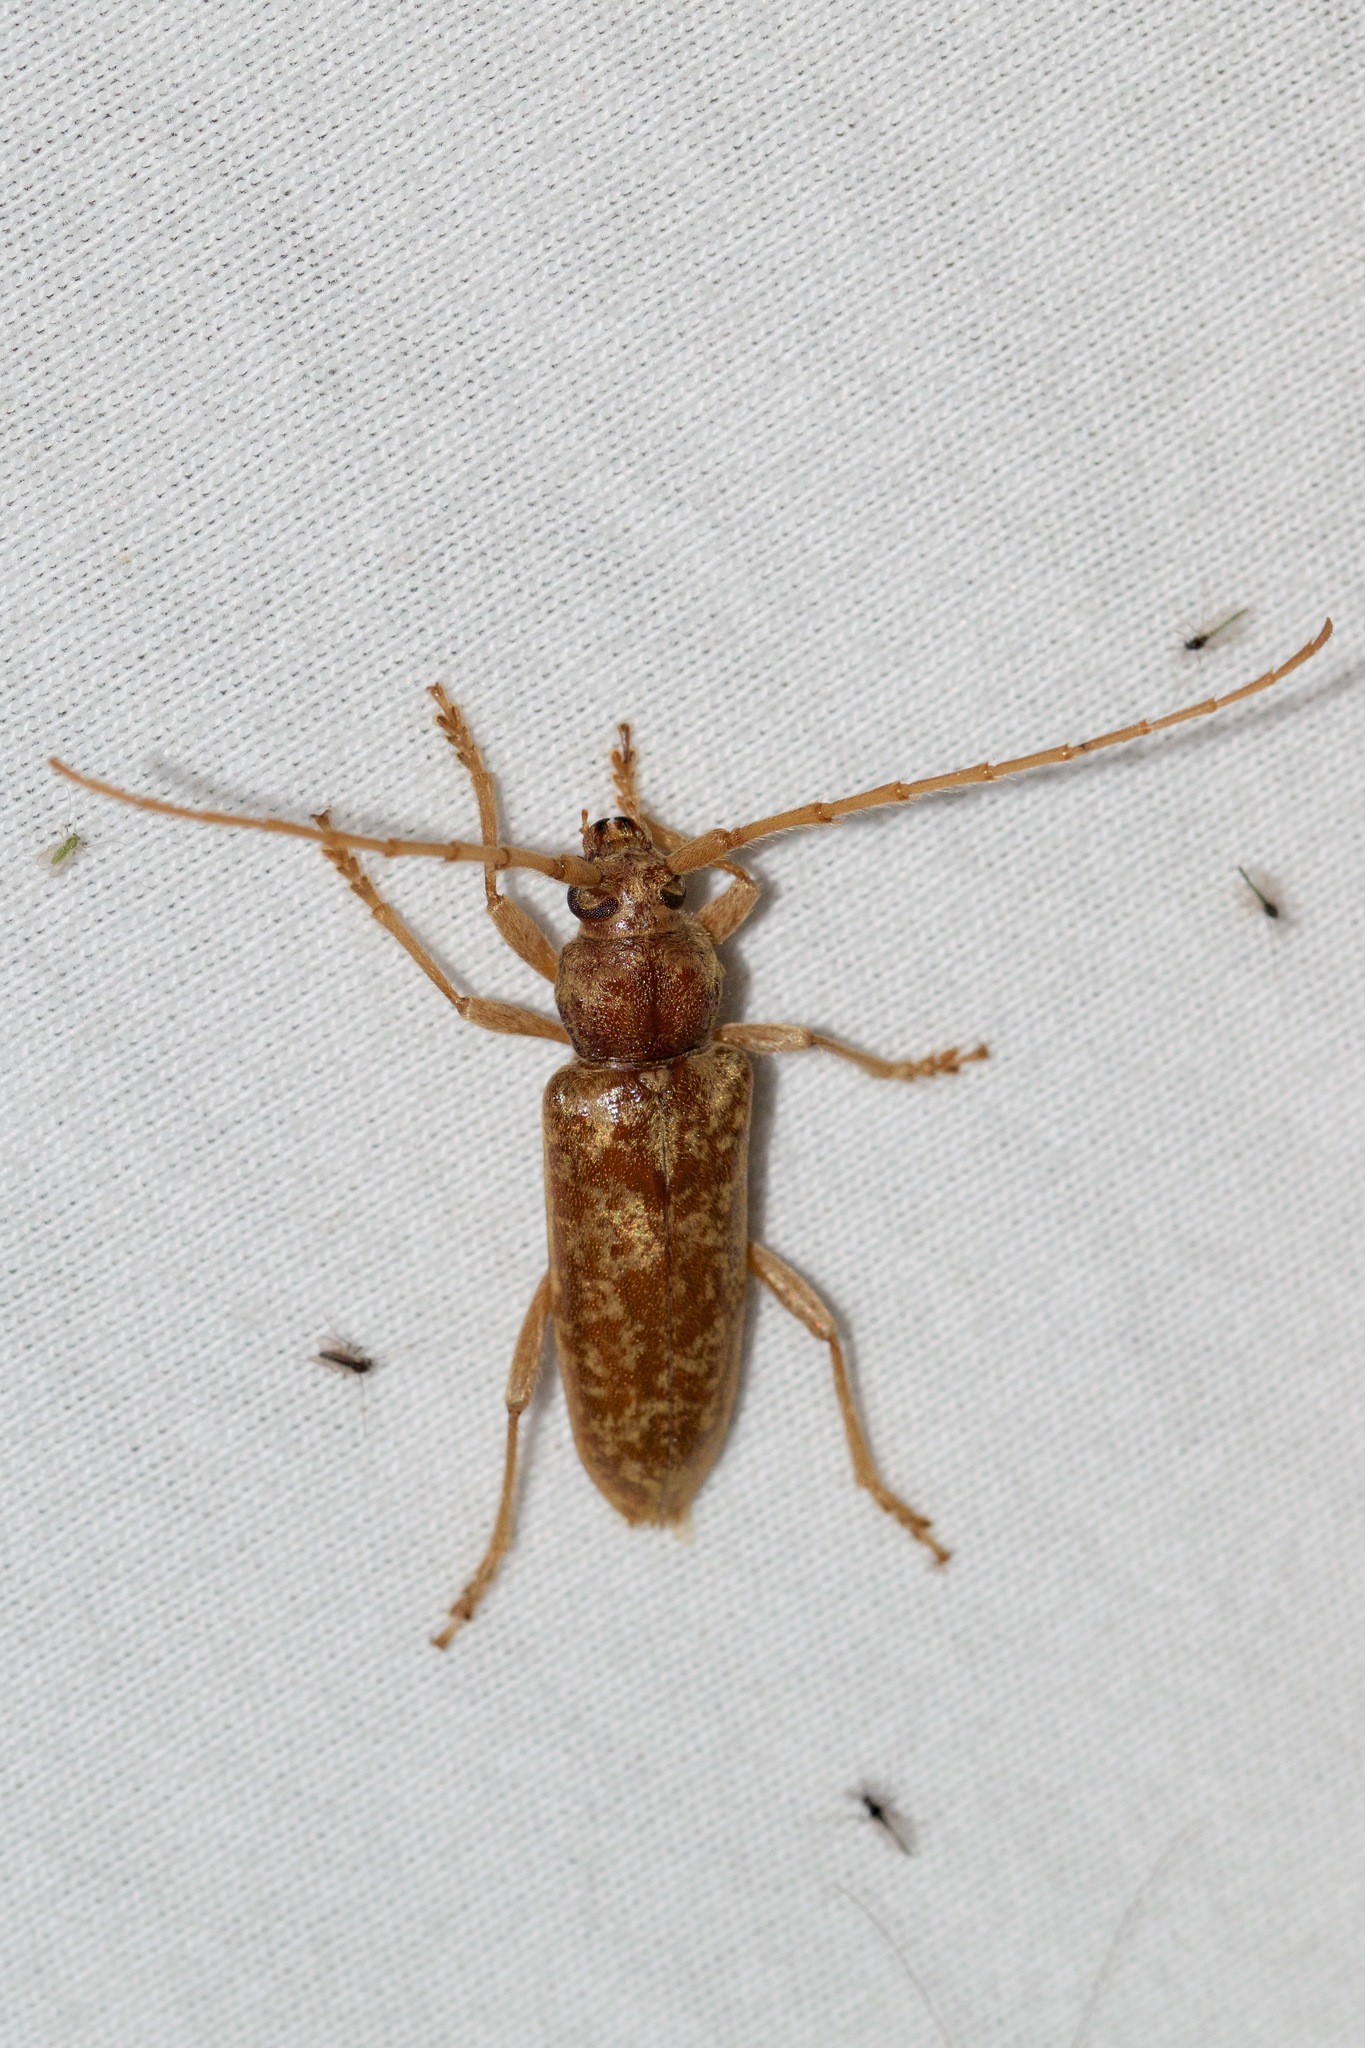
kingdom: Animalia
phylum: Arthropoda
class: Insecta
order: Coleoptera
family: Cerambycidae
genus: Enaphalodes
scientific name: Enaphalodes rufulus
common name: Red oak borer
